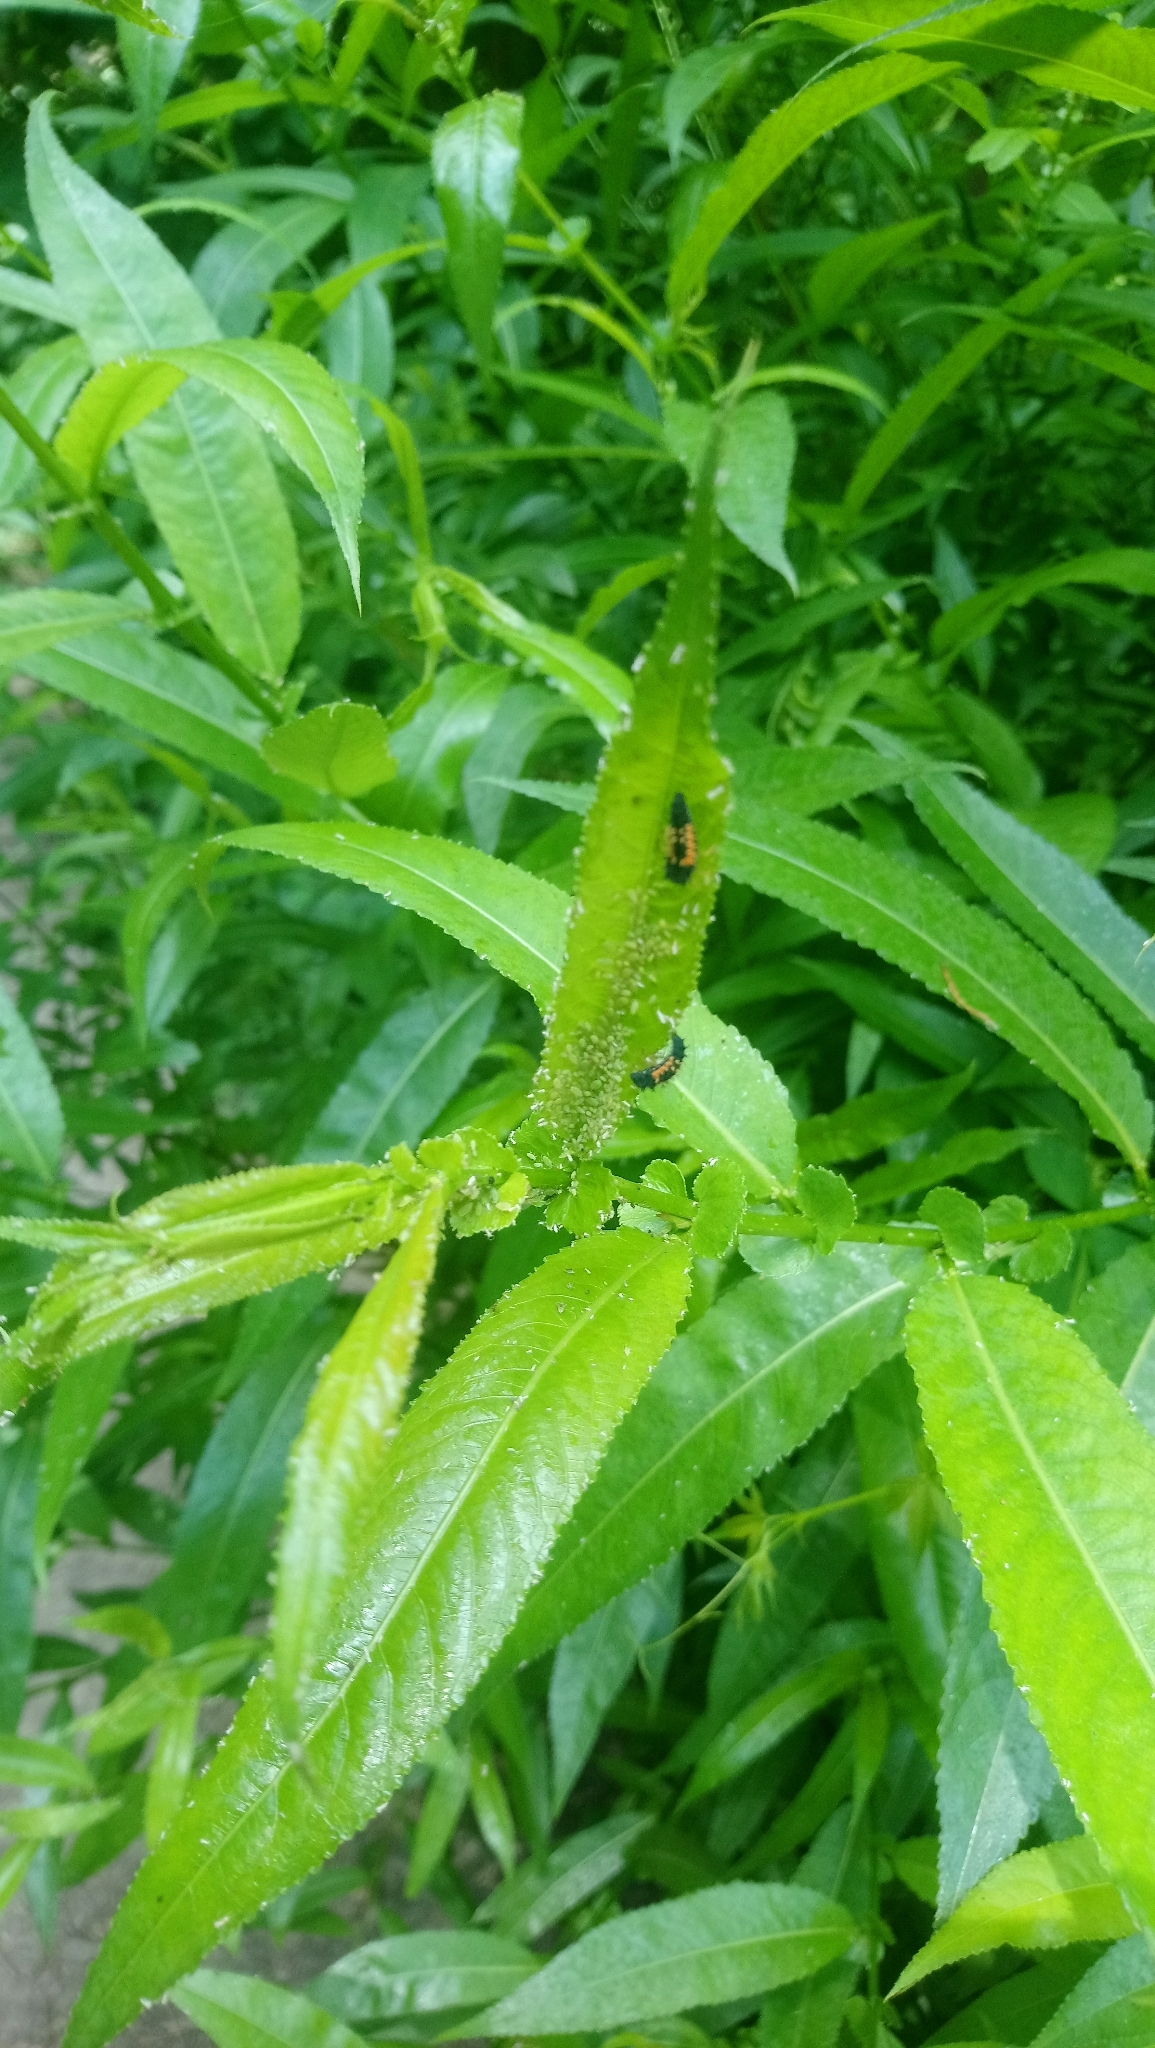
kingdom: Animalia
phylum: Arthropoda
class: Insecta
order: Coleoptera
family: Coccinellidae
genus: Harmonia
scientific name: Harmonia axyridis
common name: Harlequin ladybird
